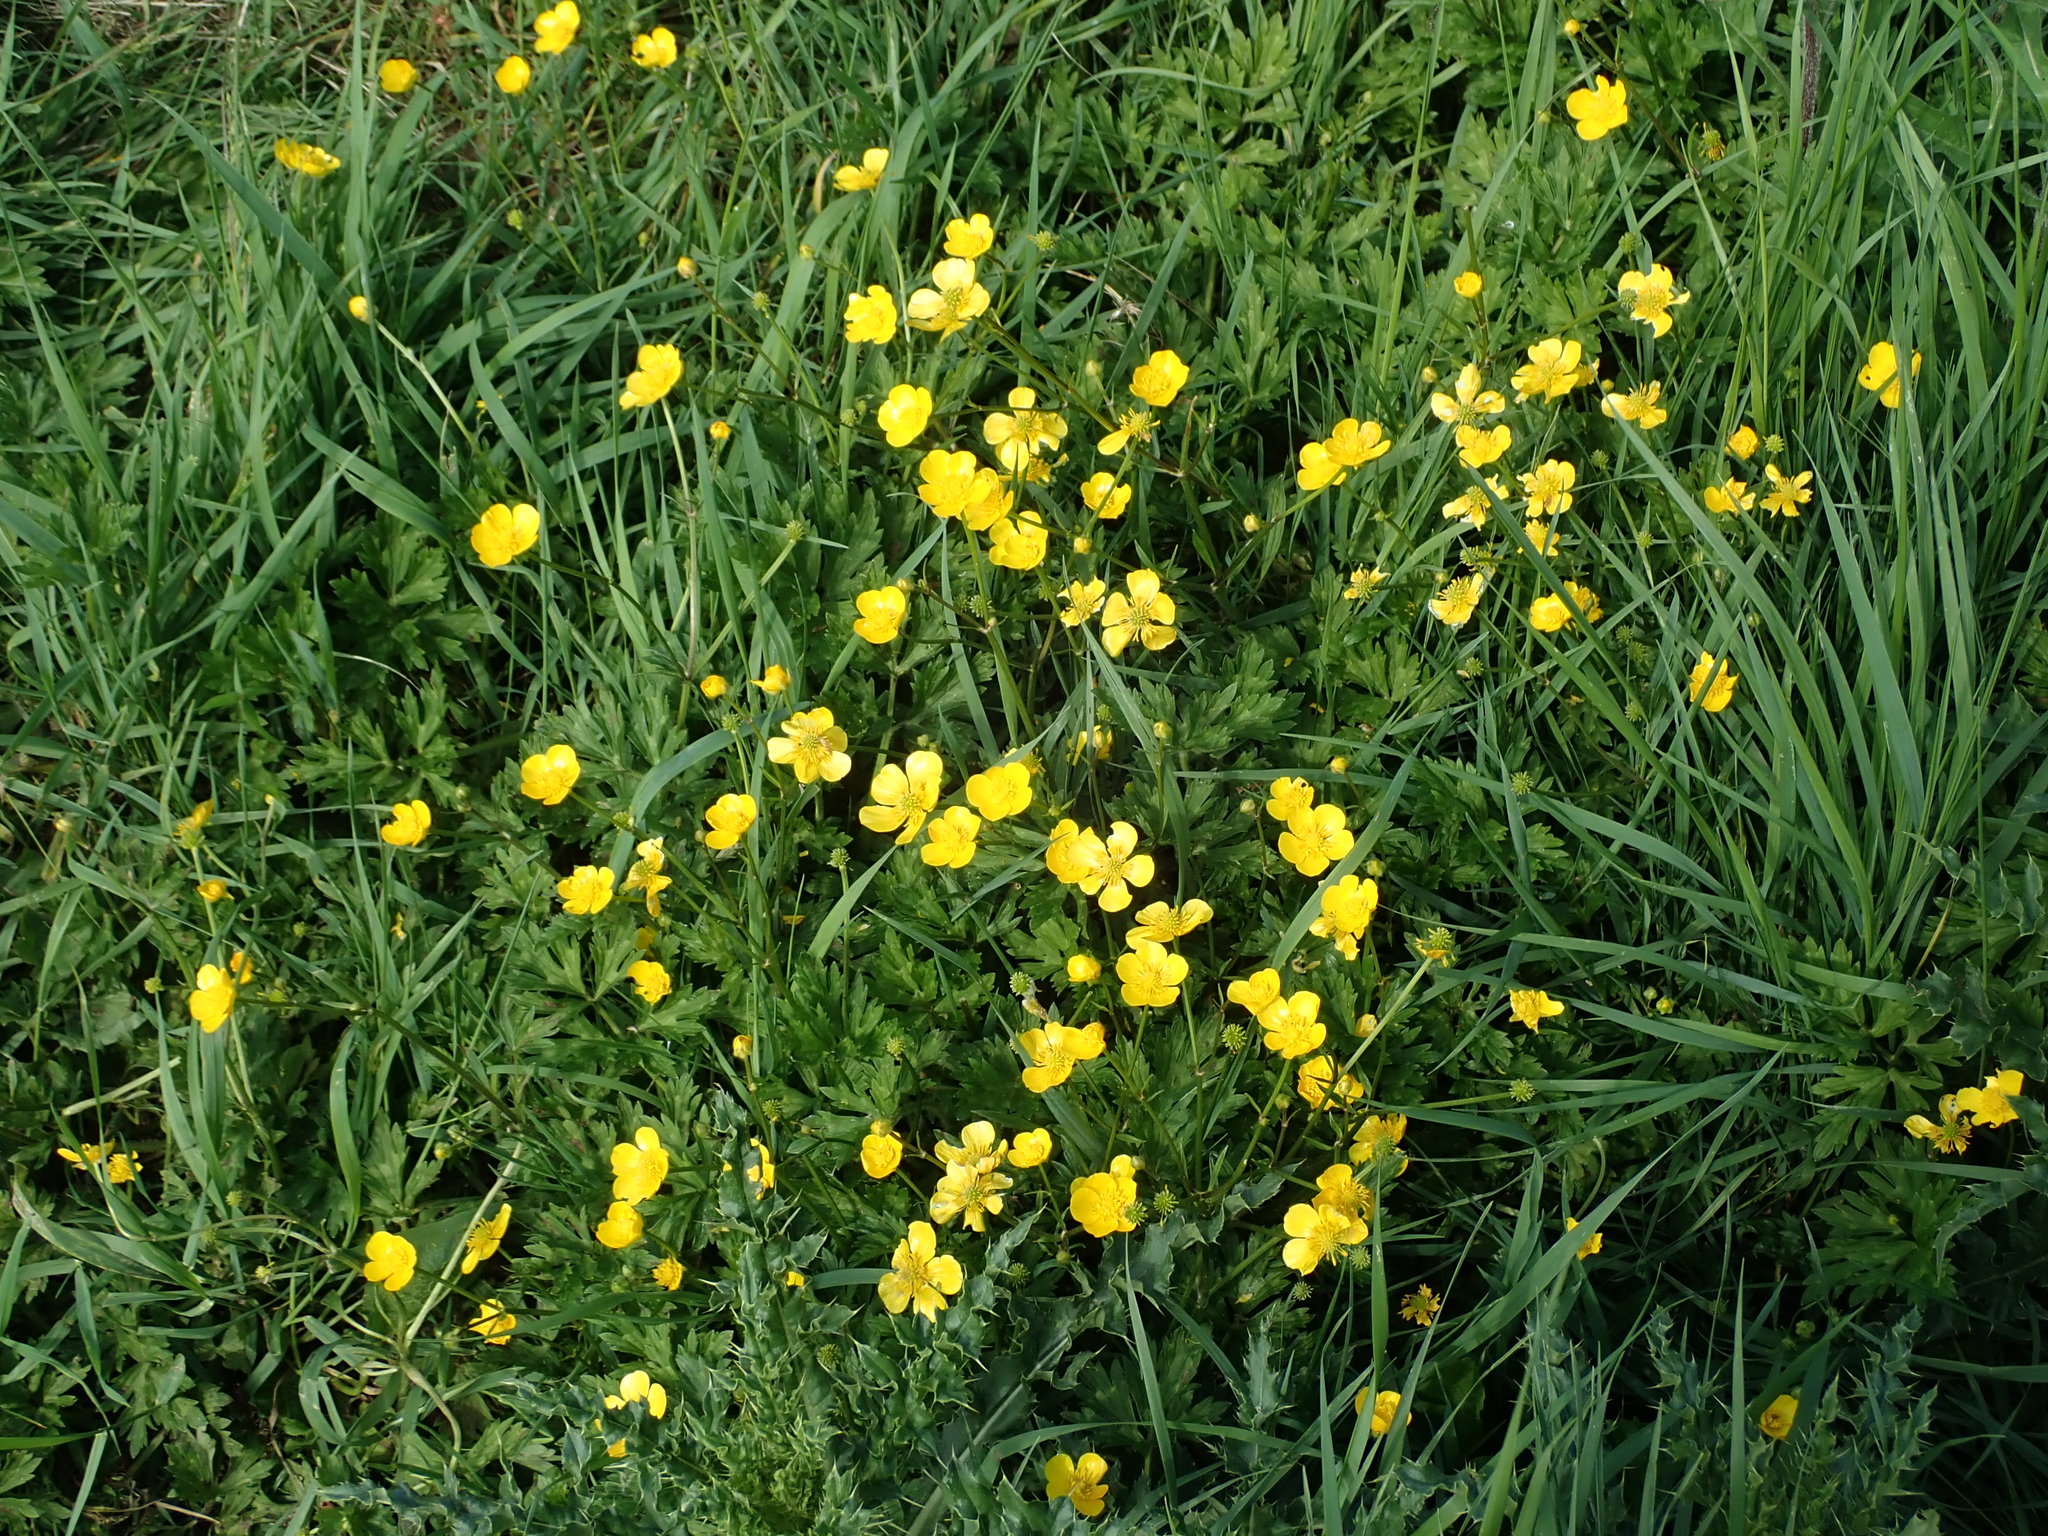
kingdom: Plantae
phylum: Tracheophyta
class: Magnoliopsida
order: Ranunculales
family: Ranunculaceae
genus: Ranunculus
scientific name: Ranunculus repens
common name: Creeping buttercup
